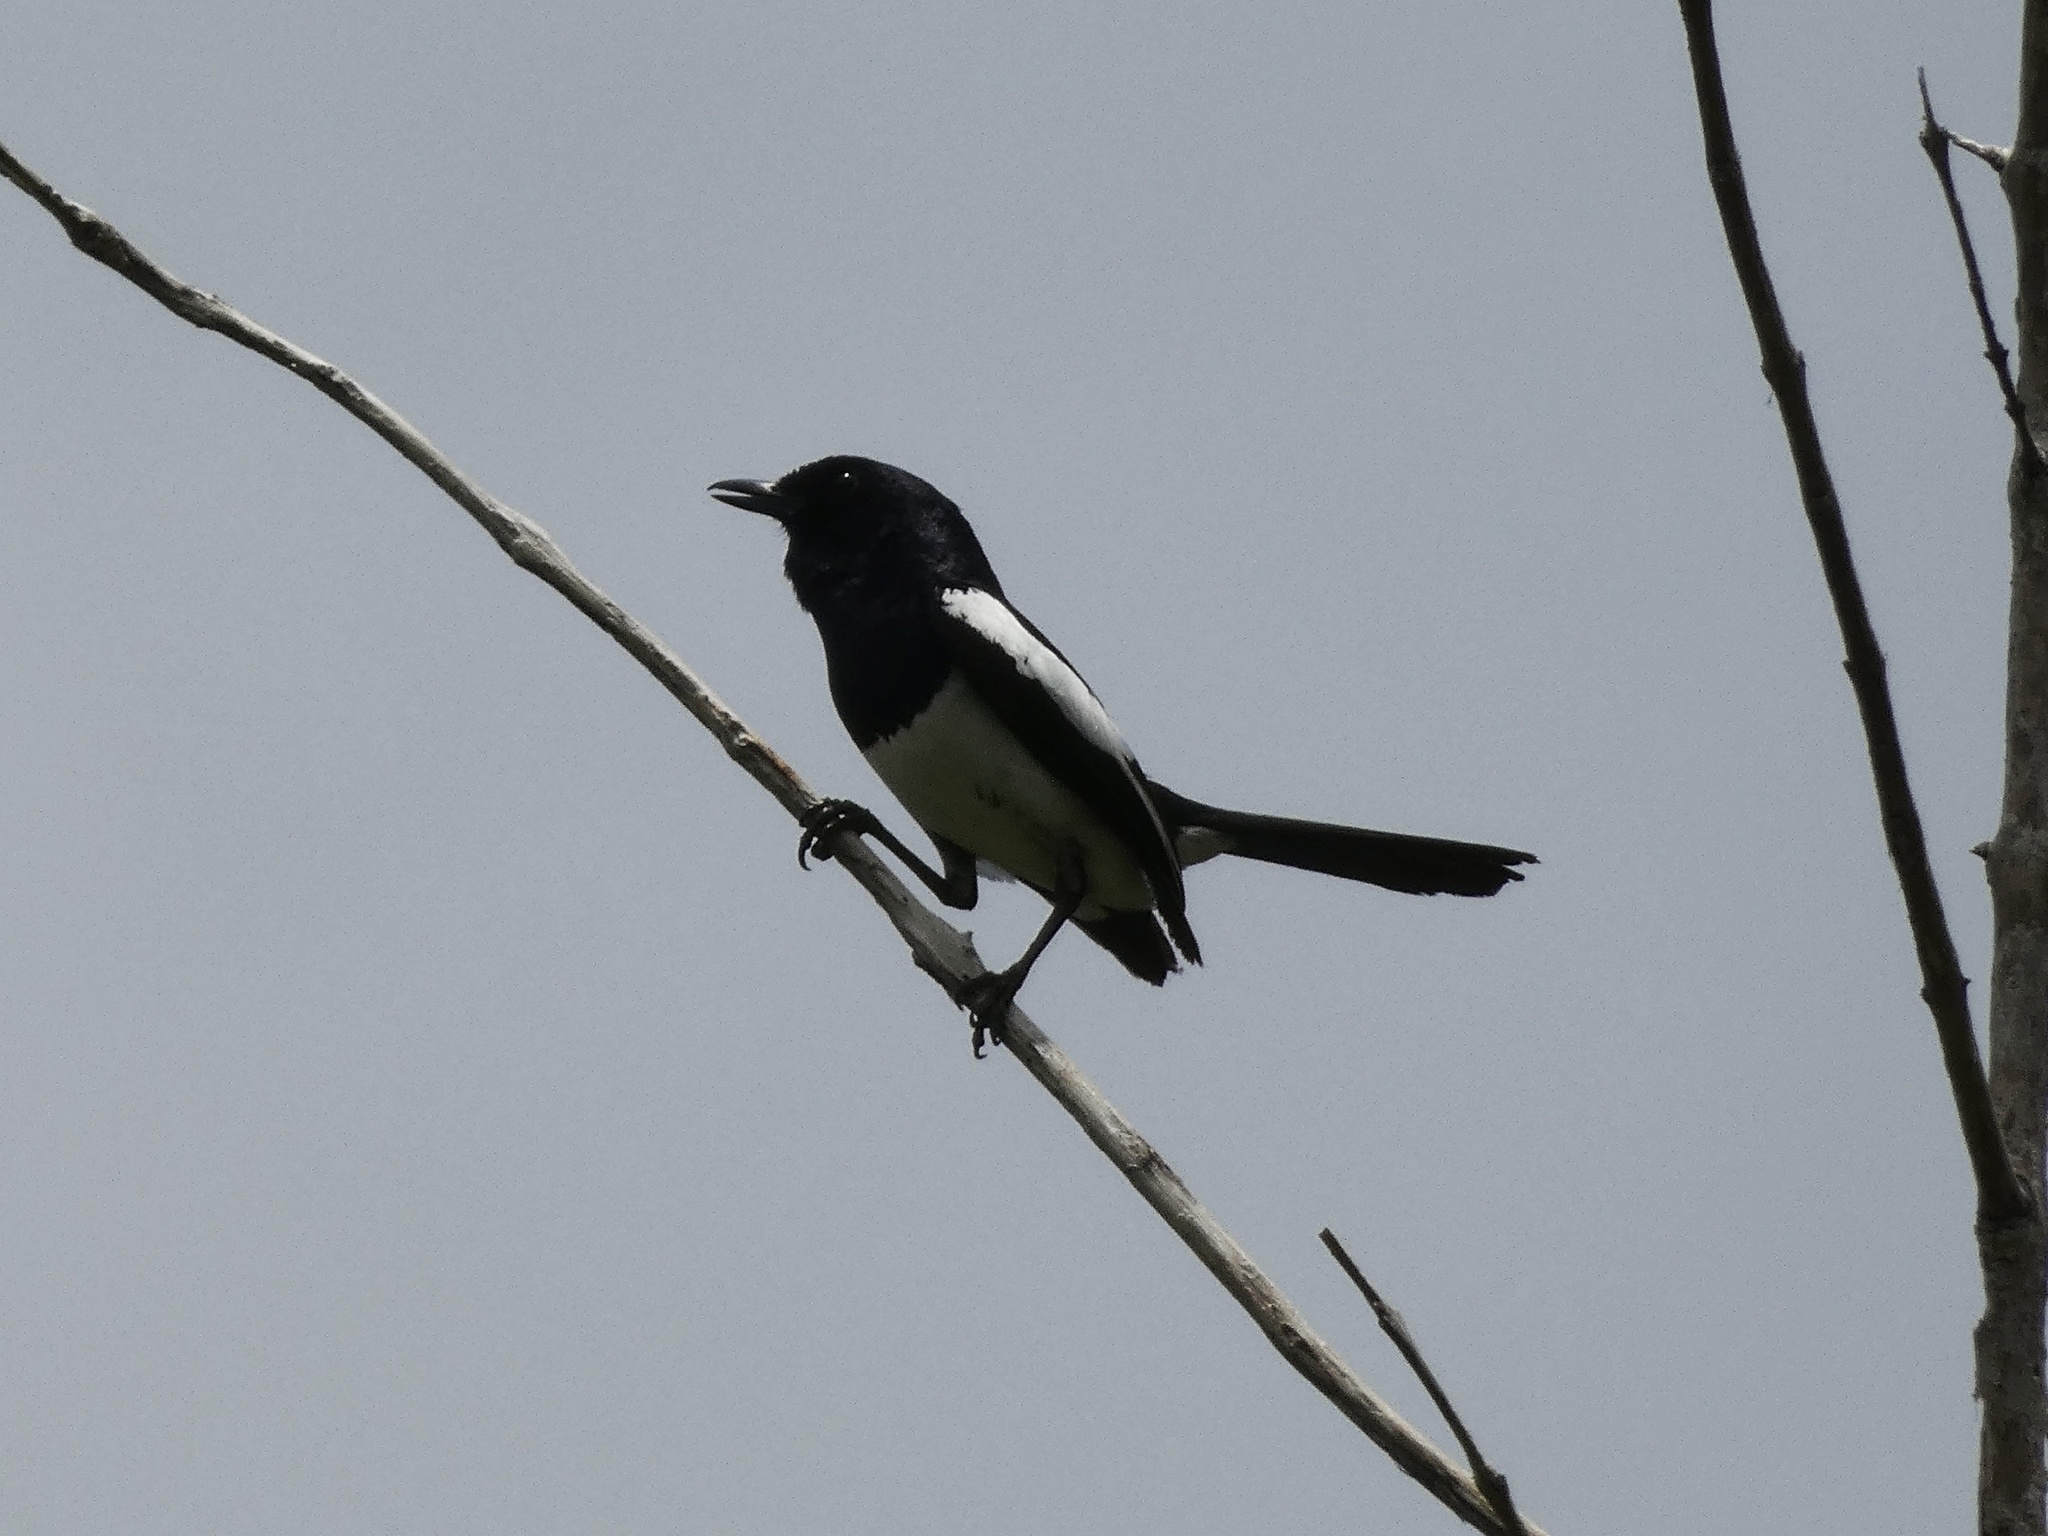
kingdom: Animalia
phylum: Chordata
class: Aves
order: Passeriformes
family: Muscicapidae
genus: Copsychus
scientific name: Copsychus mindanensis
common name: Philippine magpie-robin
